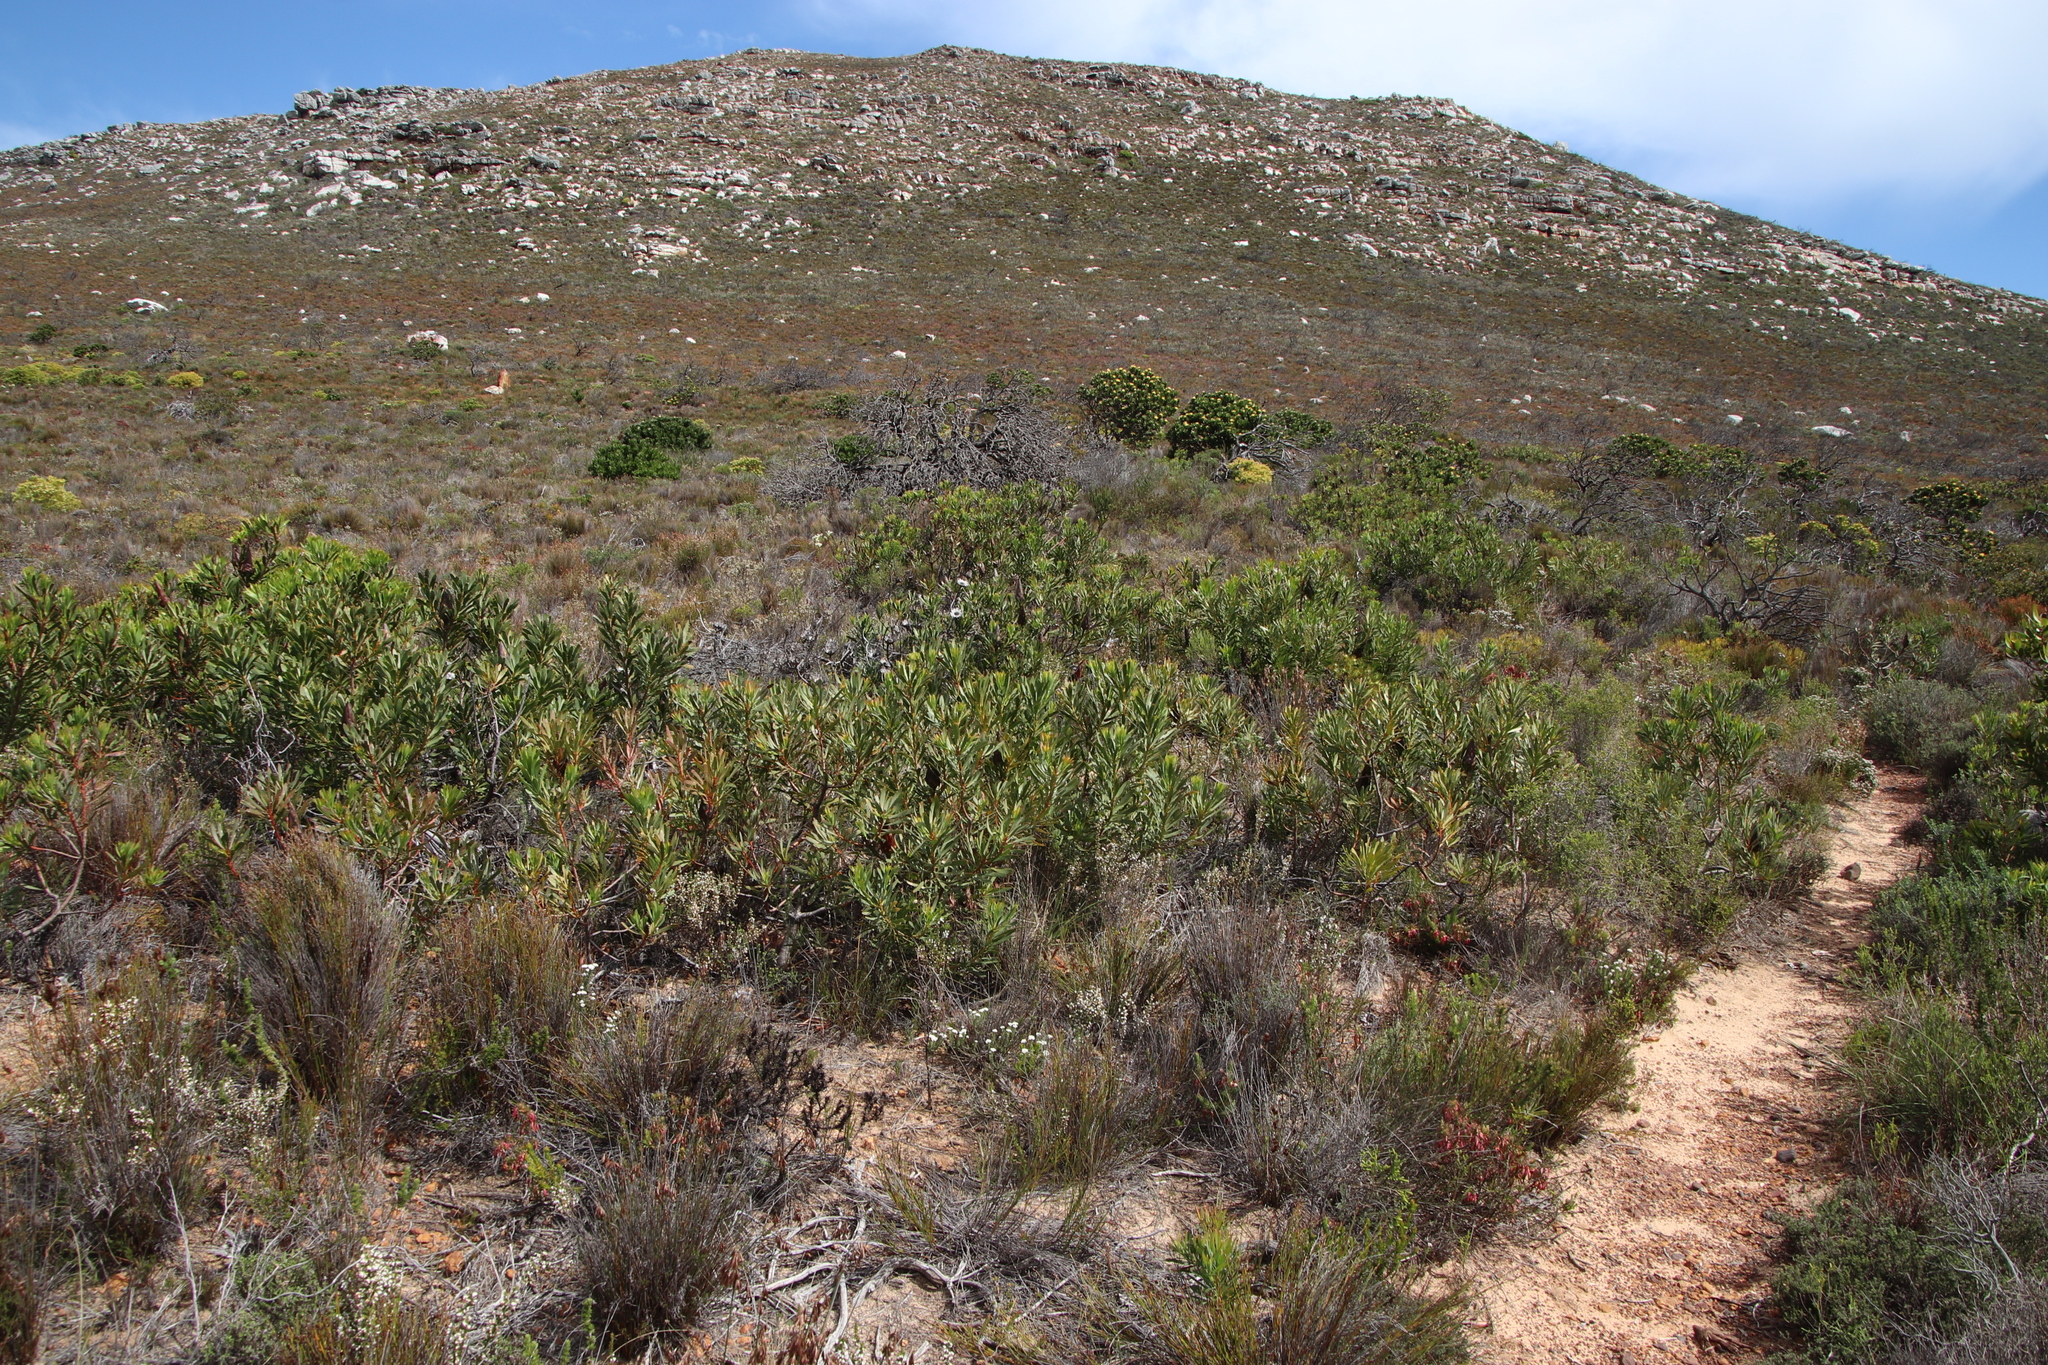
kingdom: Plantae
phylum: Tracheophyta
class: Magnoliopsida
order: Proteales
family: Proteaceae
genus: Protea
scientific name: Protea repens
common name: Sugarbush
